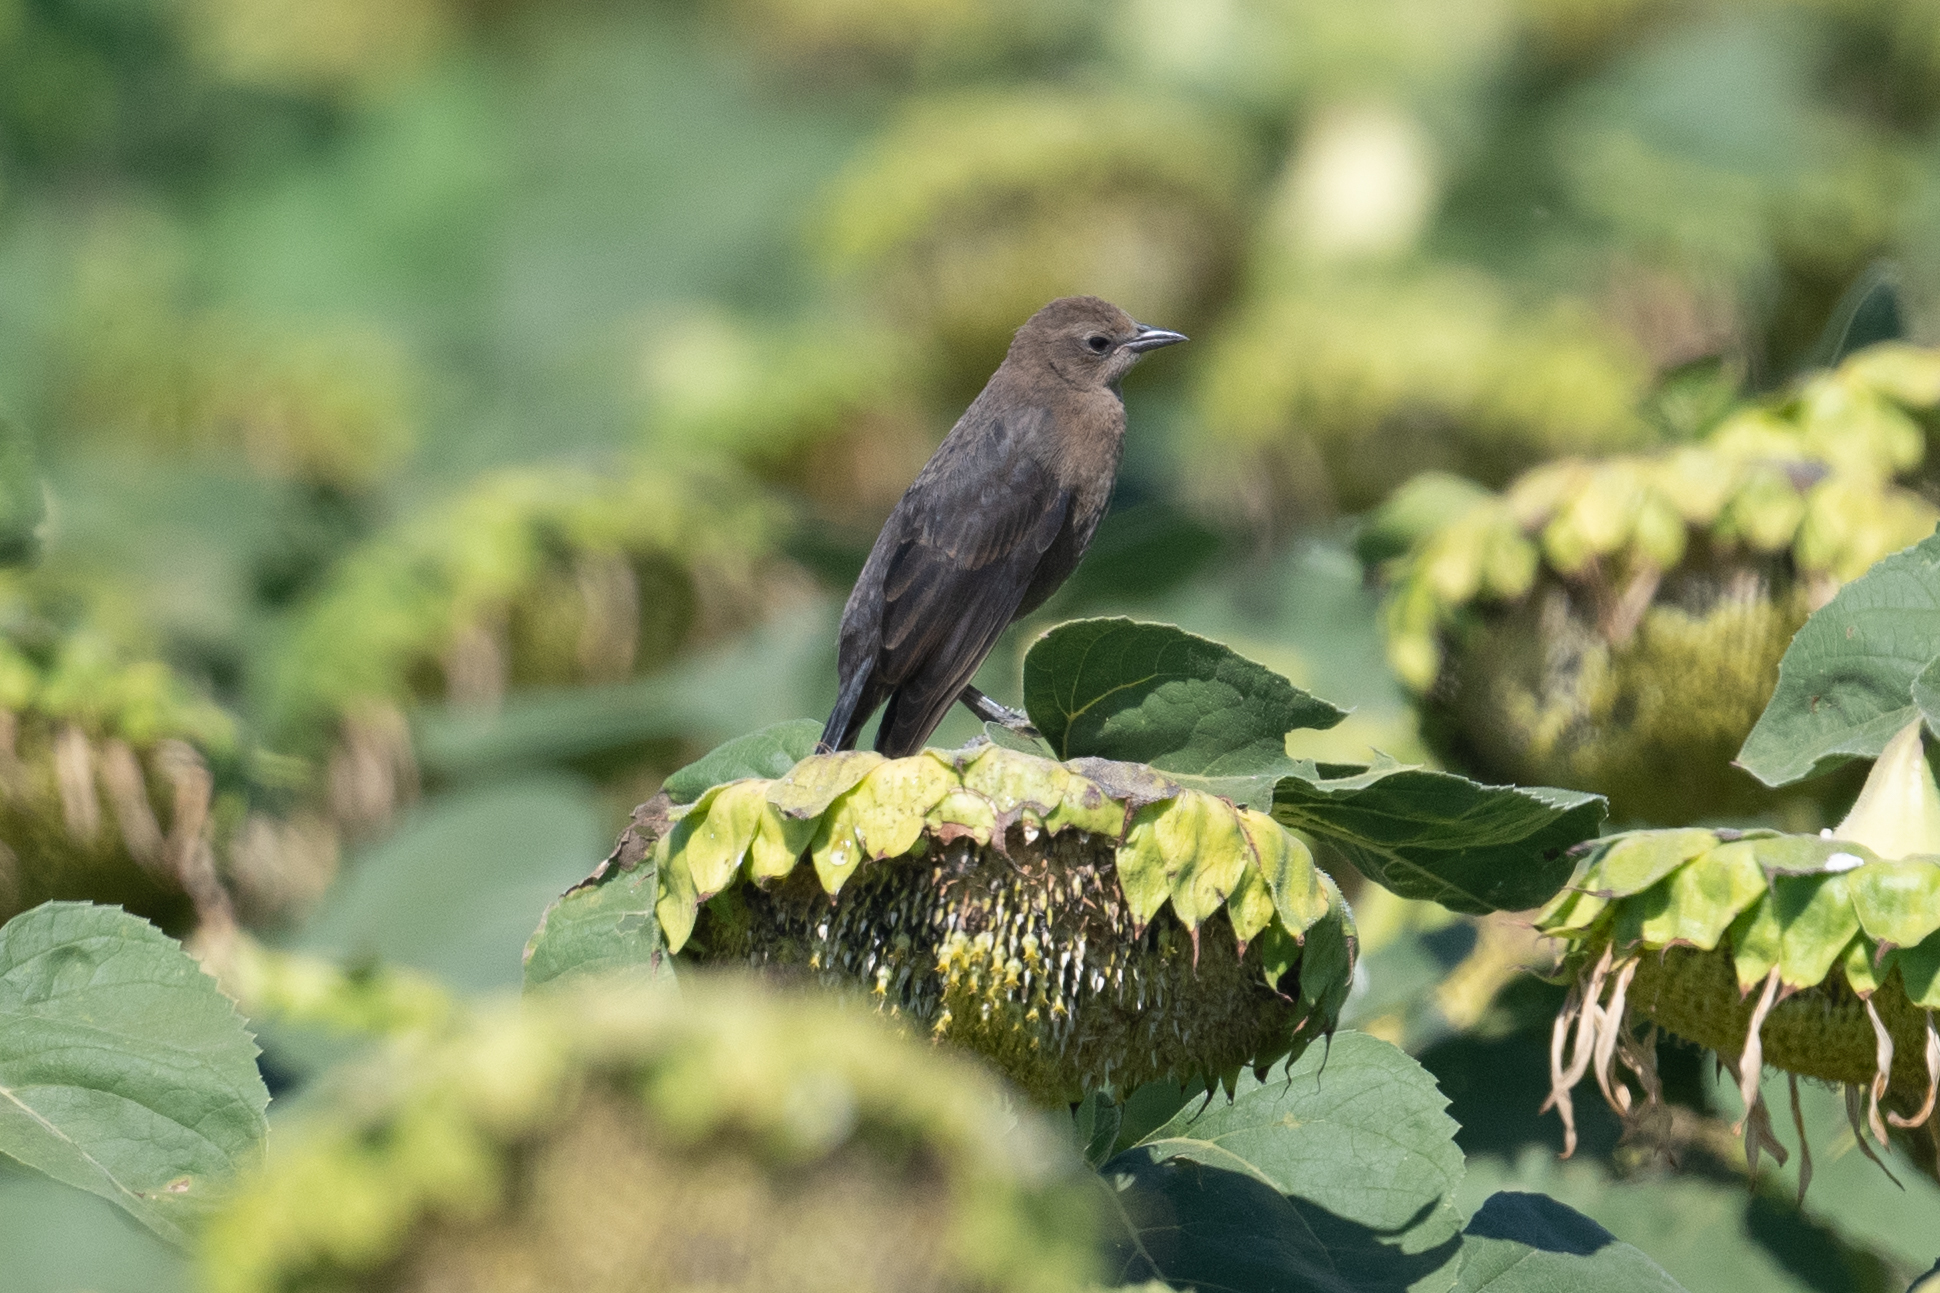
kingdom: Animalia
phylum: Chordata
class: Aves
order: Passeriformes
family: Icteridae
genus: Euphagus
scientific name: Euphagus cyanocephalus
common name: Brewer's blackbird
